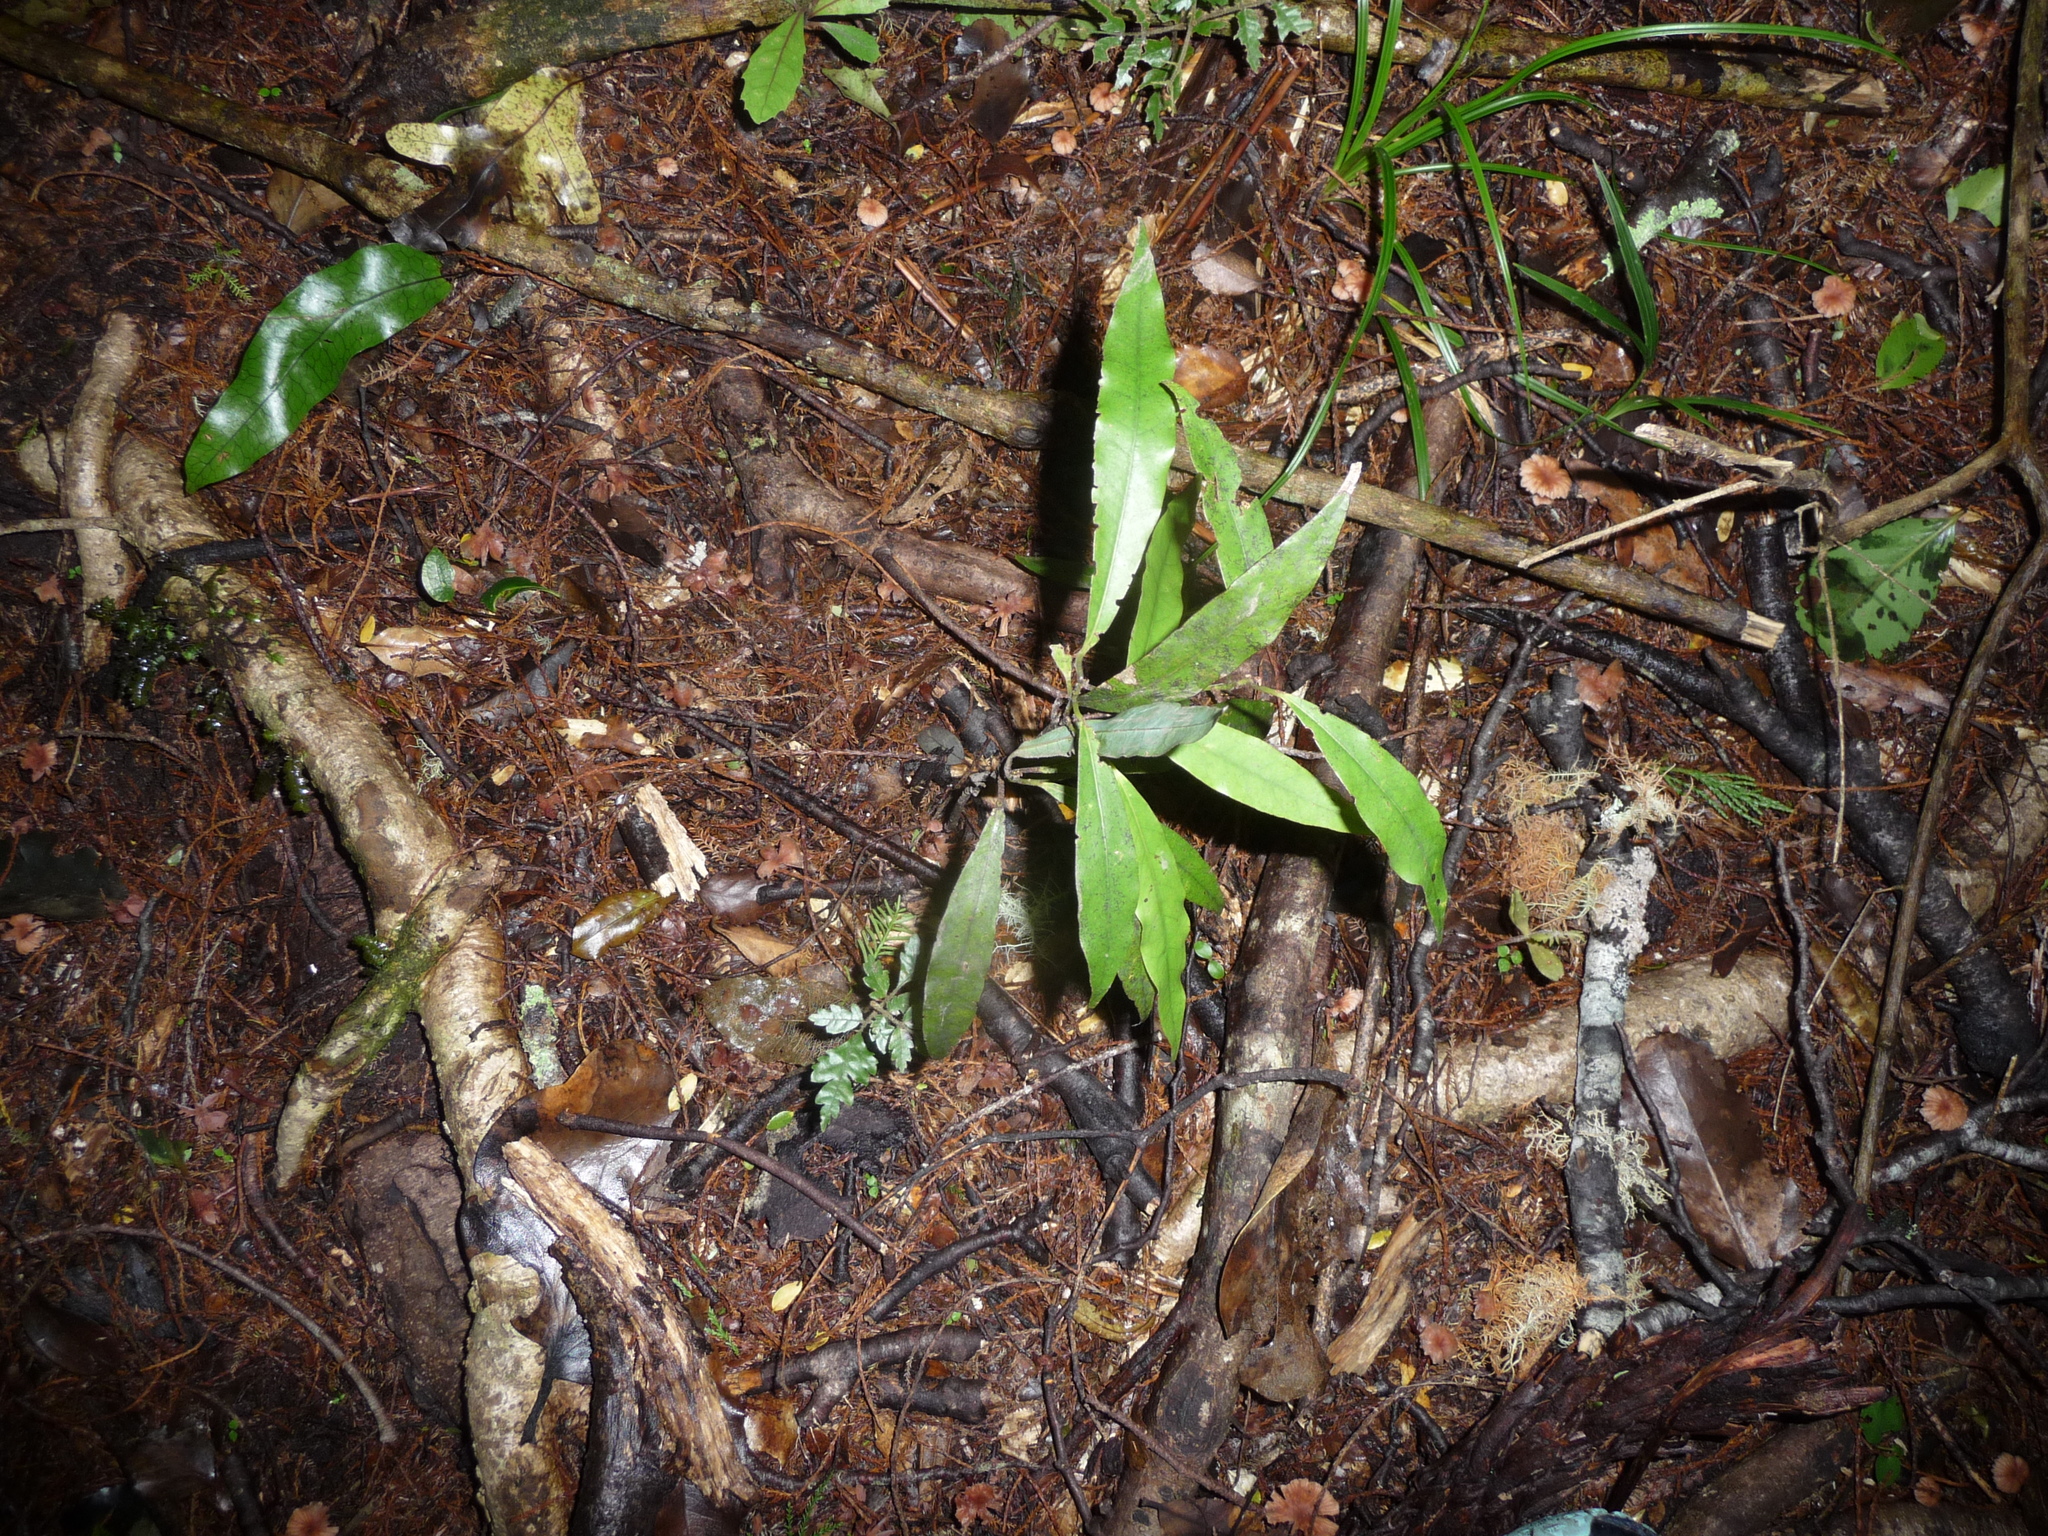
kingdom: Plantae
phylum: Tracheophyta
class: Magnoliopsida
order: Laurales
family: Lauraceae
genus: Beilschmiedia
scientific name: Beilschmiedia tawa
